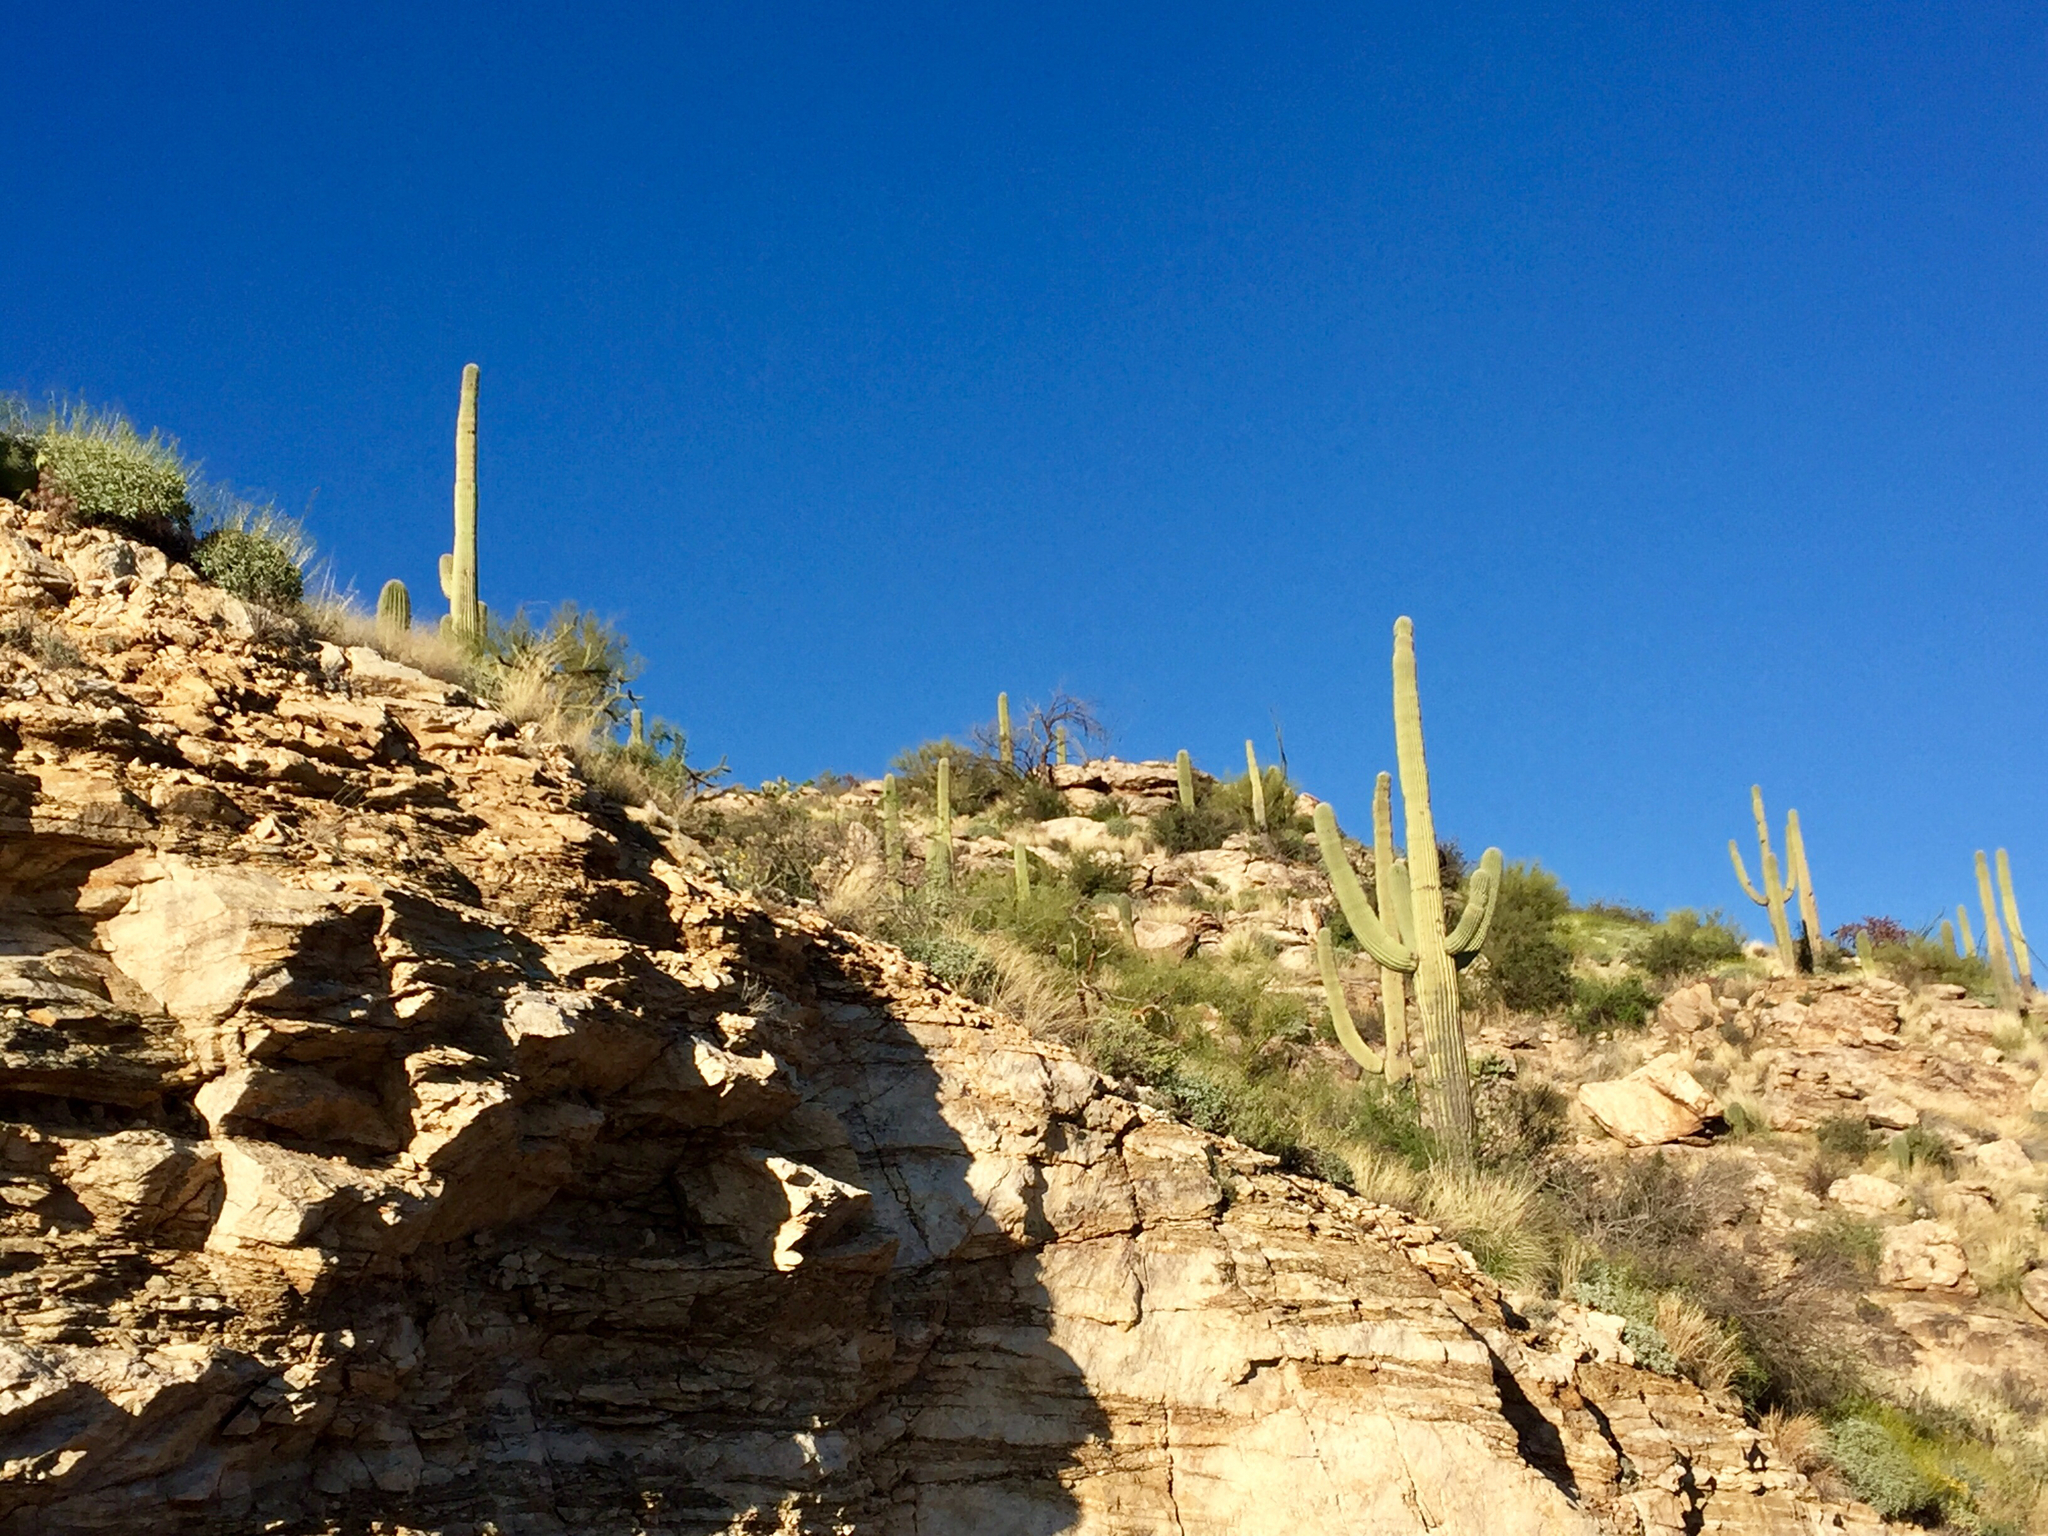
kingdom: Plantae
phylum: Tracheophyta
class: Magnoliopsida
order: Caryophyllales
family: Cactaceae
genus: Carnegiea
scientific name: Carnegiea gigantea
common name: Saguaro
